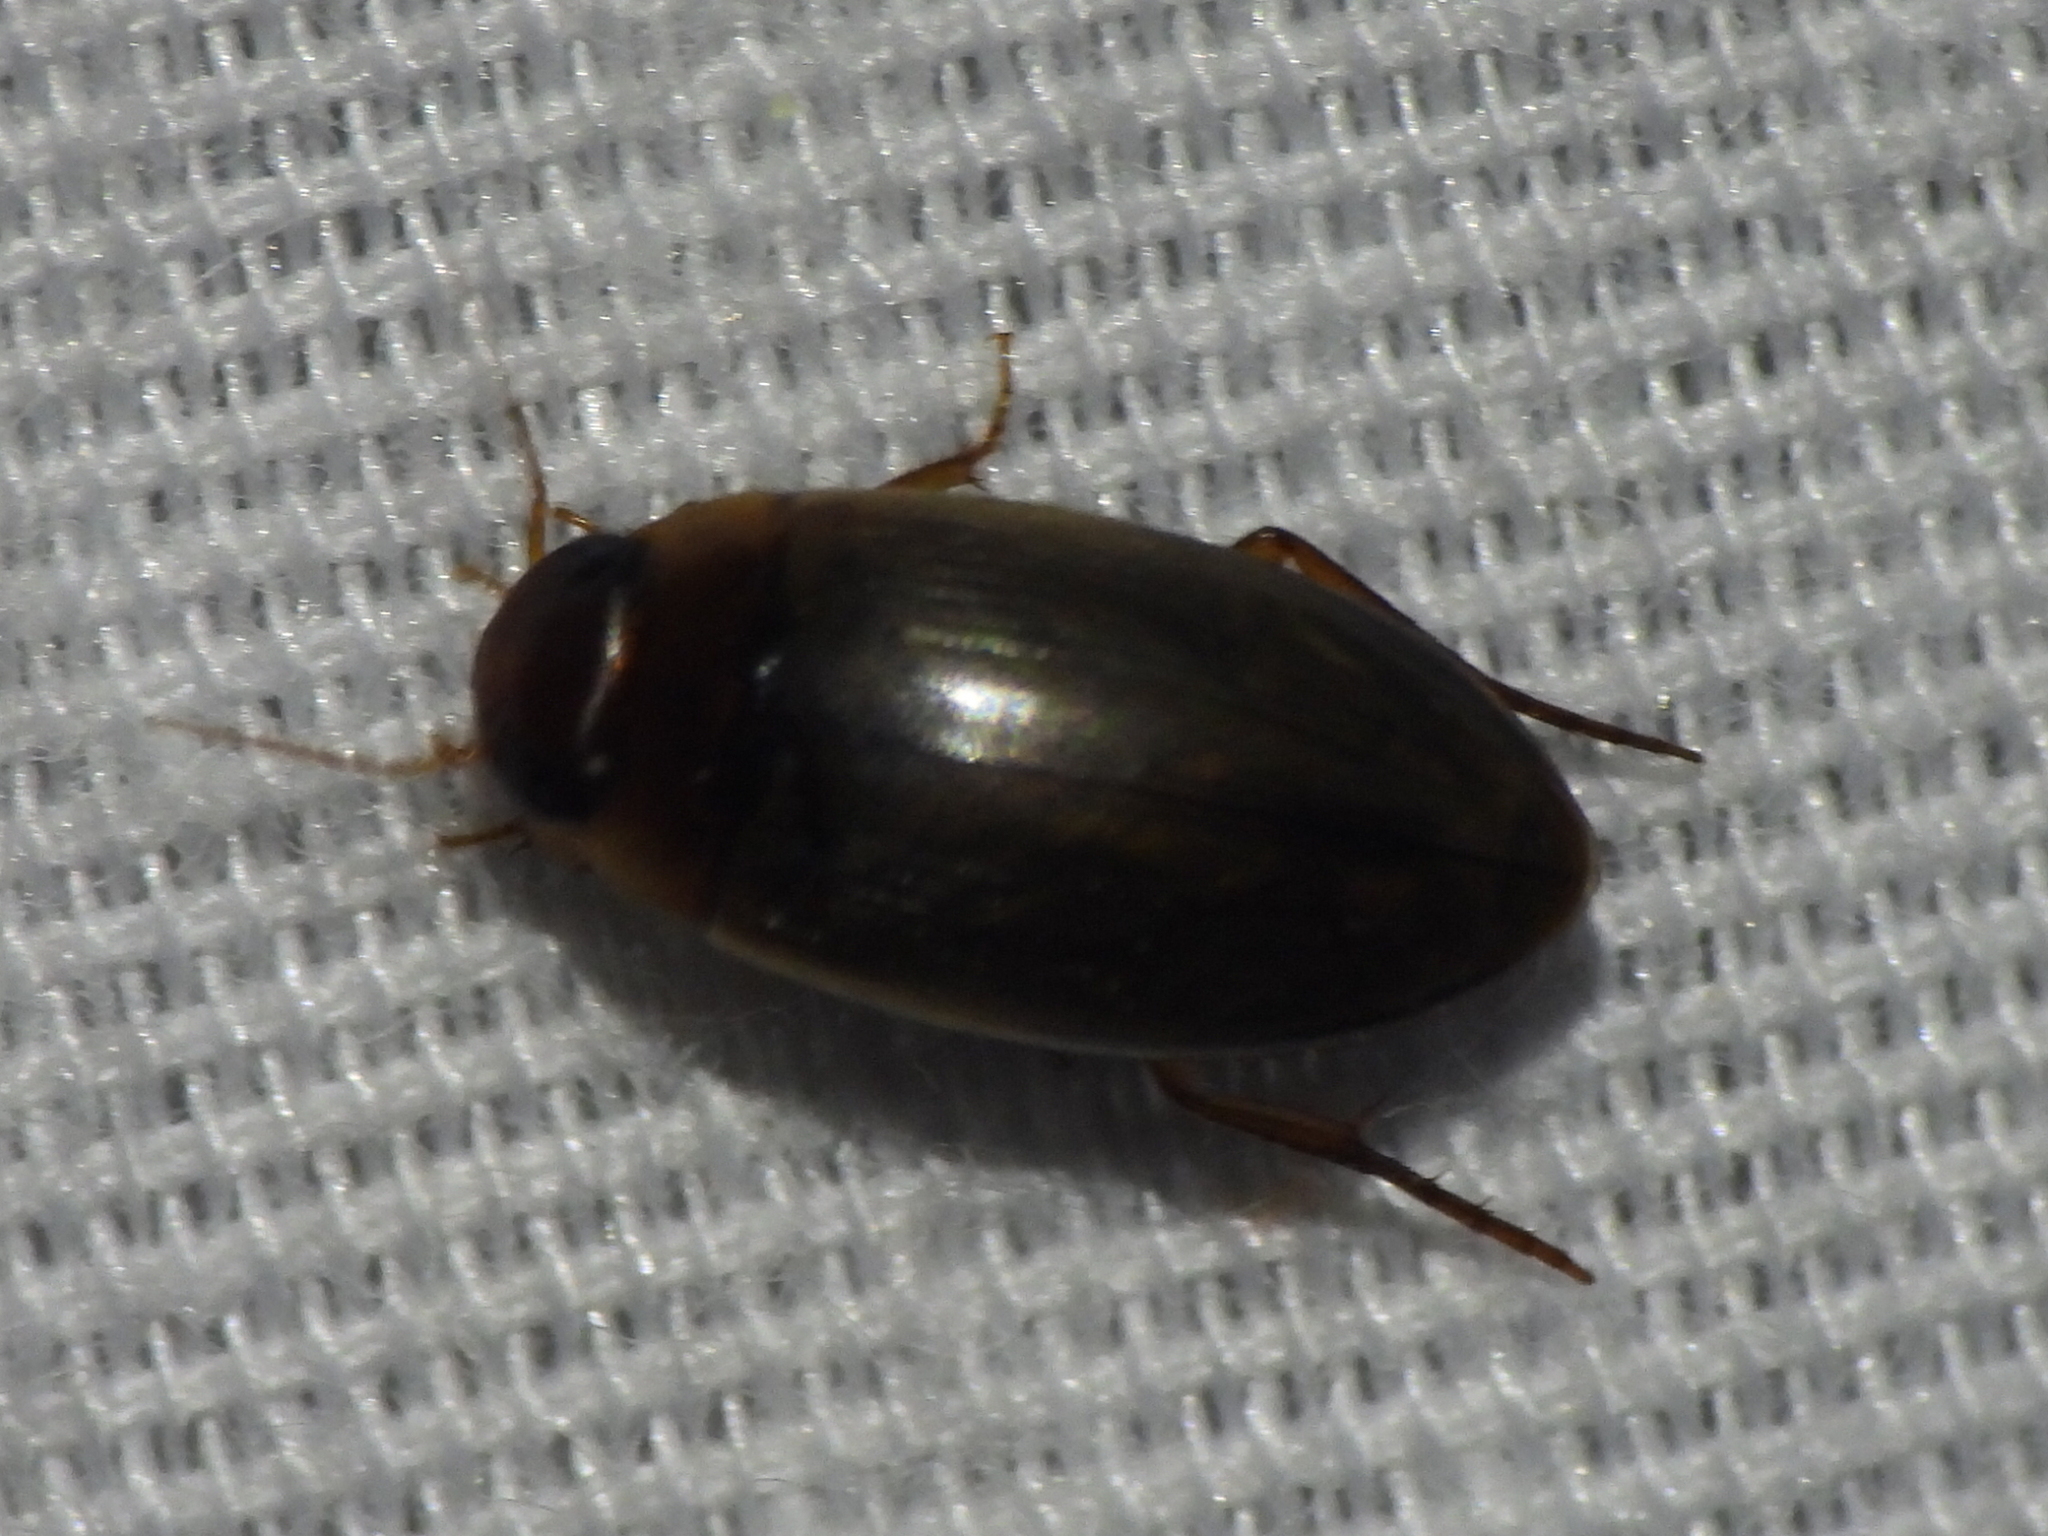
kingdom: Animalia
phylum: Arthropoda
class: Insecta
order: Coleoptera
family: Dytiscidae
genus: Copelatus
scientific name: Copelatus chevrolati
